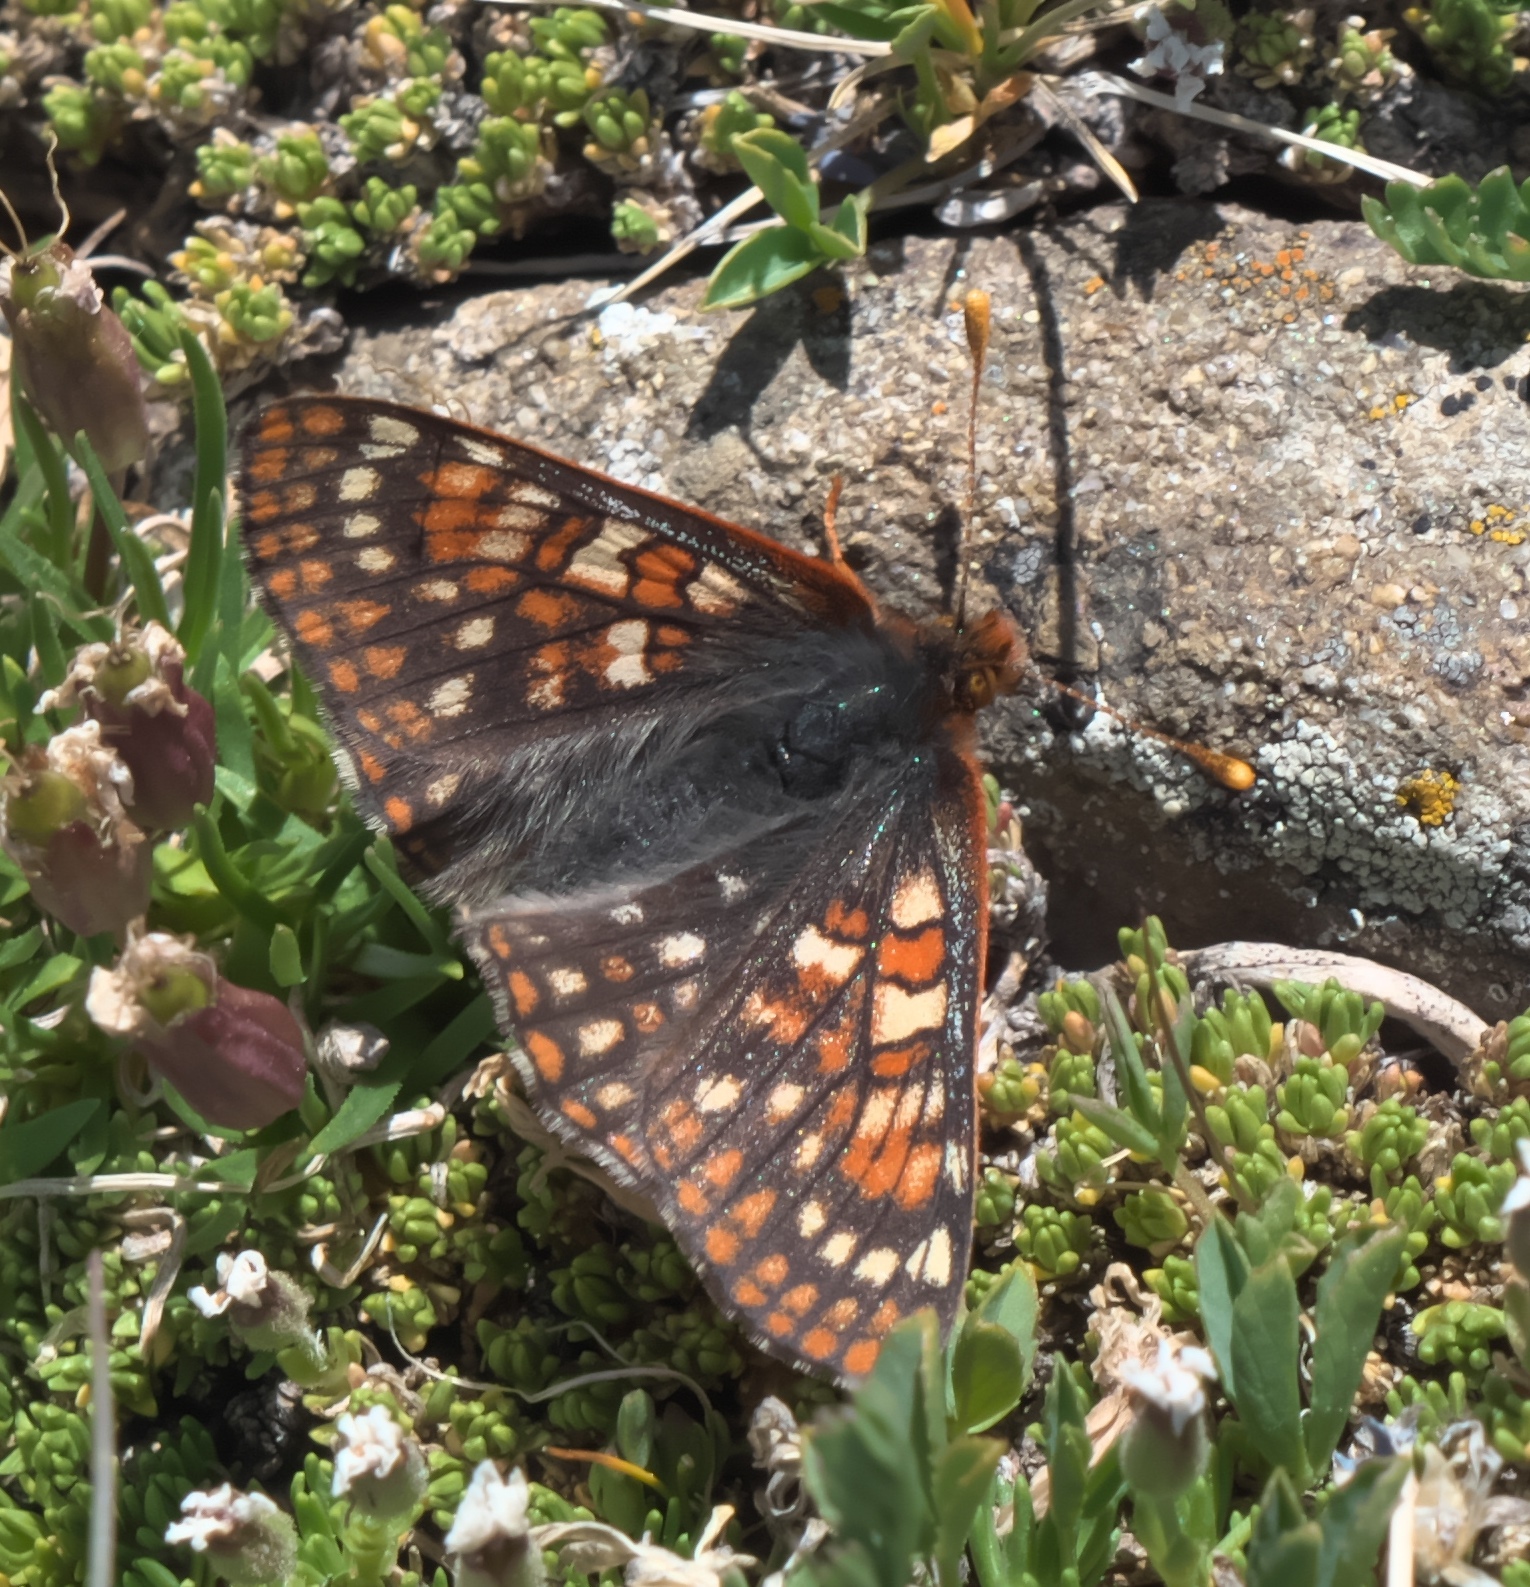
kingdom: Animalia
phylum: Arthropoda
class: Insecta
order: Lepidoptera
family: Nymphalidae
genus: Occidryas
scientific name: Occidryas anicia
